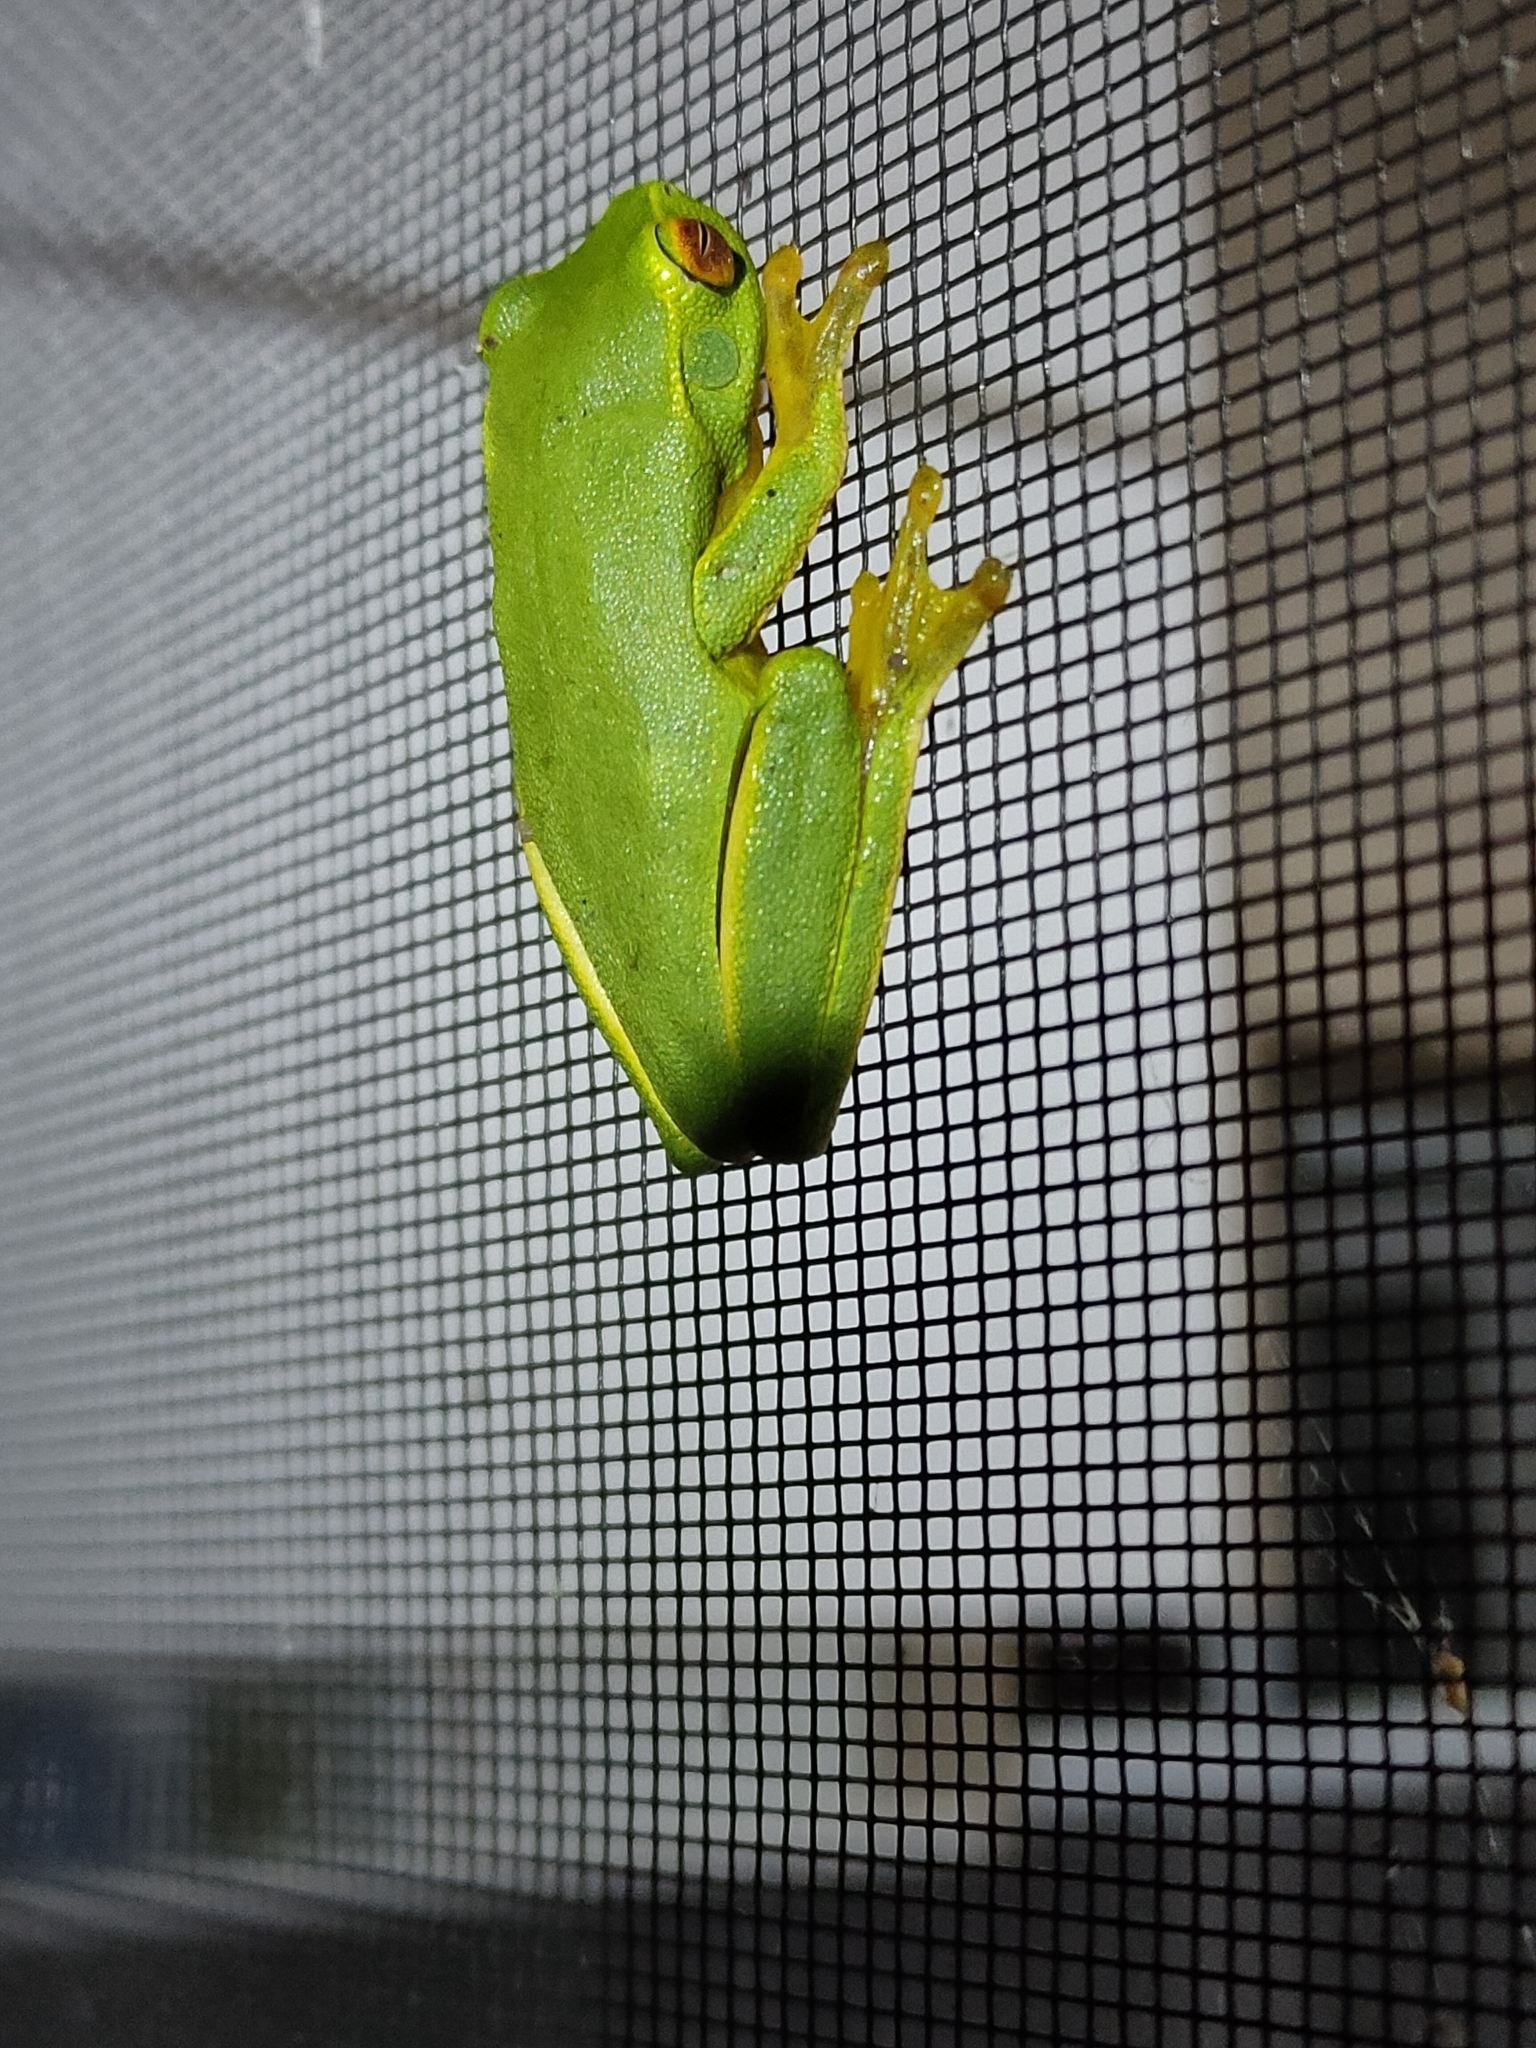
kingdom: Animalia
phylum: Chordata
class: Amphibia
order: Anura
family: Pelodryadidae
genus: Ranoidea
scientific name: Ranoidea gracilenta
